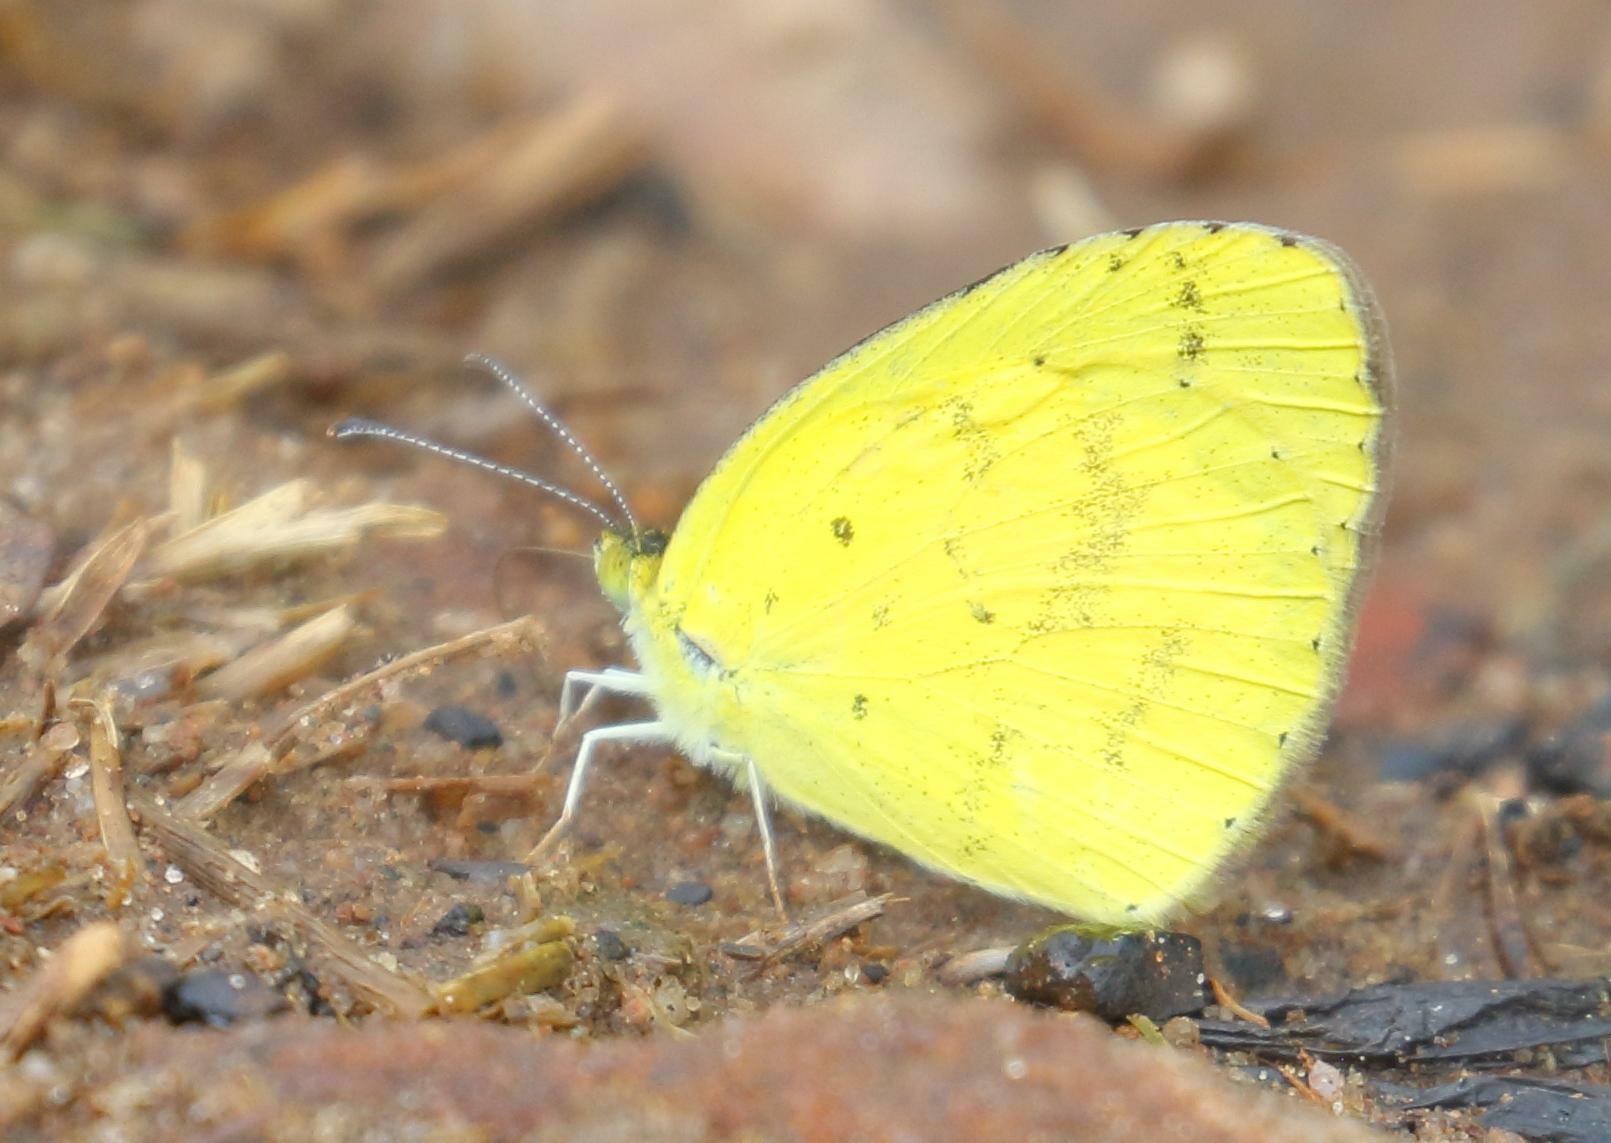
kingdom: Animalia
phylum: Arthropoda
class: Insecta
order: Lepidoptera
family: Pieridae
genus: Eurema
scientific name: Eurema brigitta
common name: Small grass yellow
